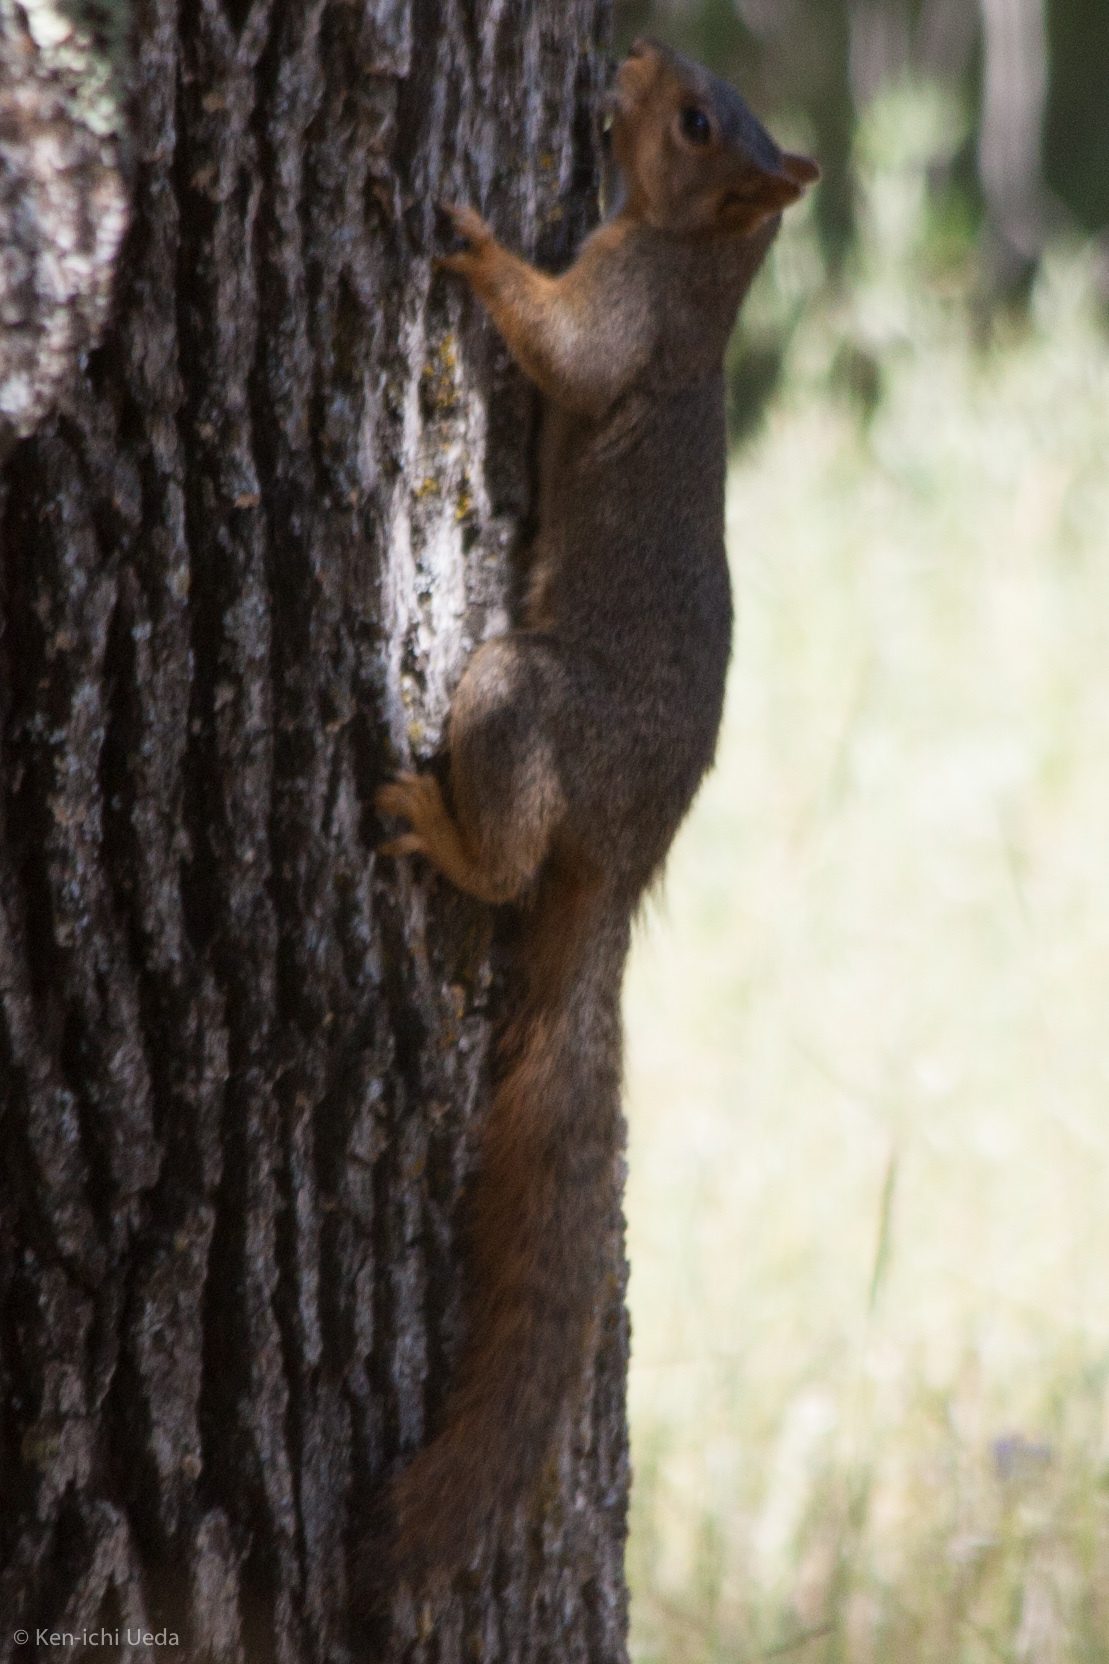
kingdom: Animalia
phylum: Chordata
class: Mammalia
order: Rodentia
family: Sciuridae
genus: Sciurus
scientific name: Sciurus niger
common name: Fox squirrel
